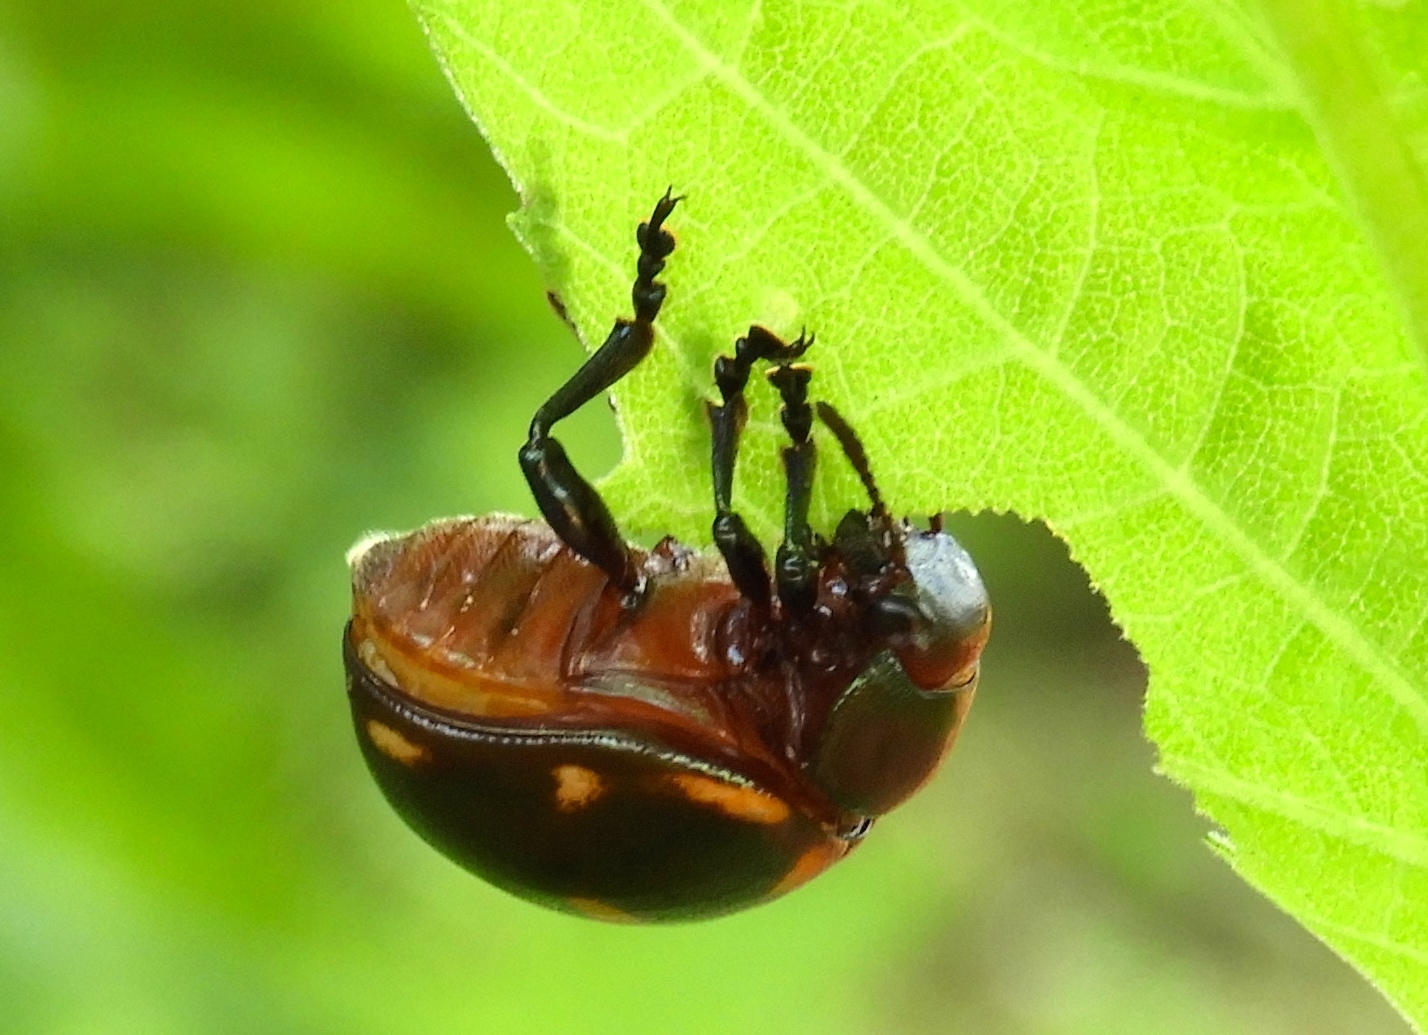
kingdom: Animalia
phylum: Arthropoda
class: Insecta
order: Coleoptera
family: Chrysomelidae
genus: Leptinotarsa
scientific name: Leptinotarsa behrensi
